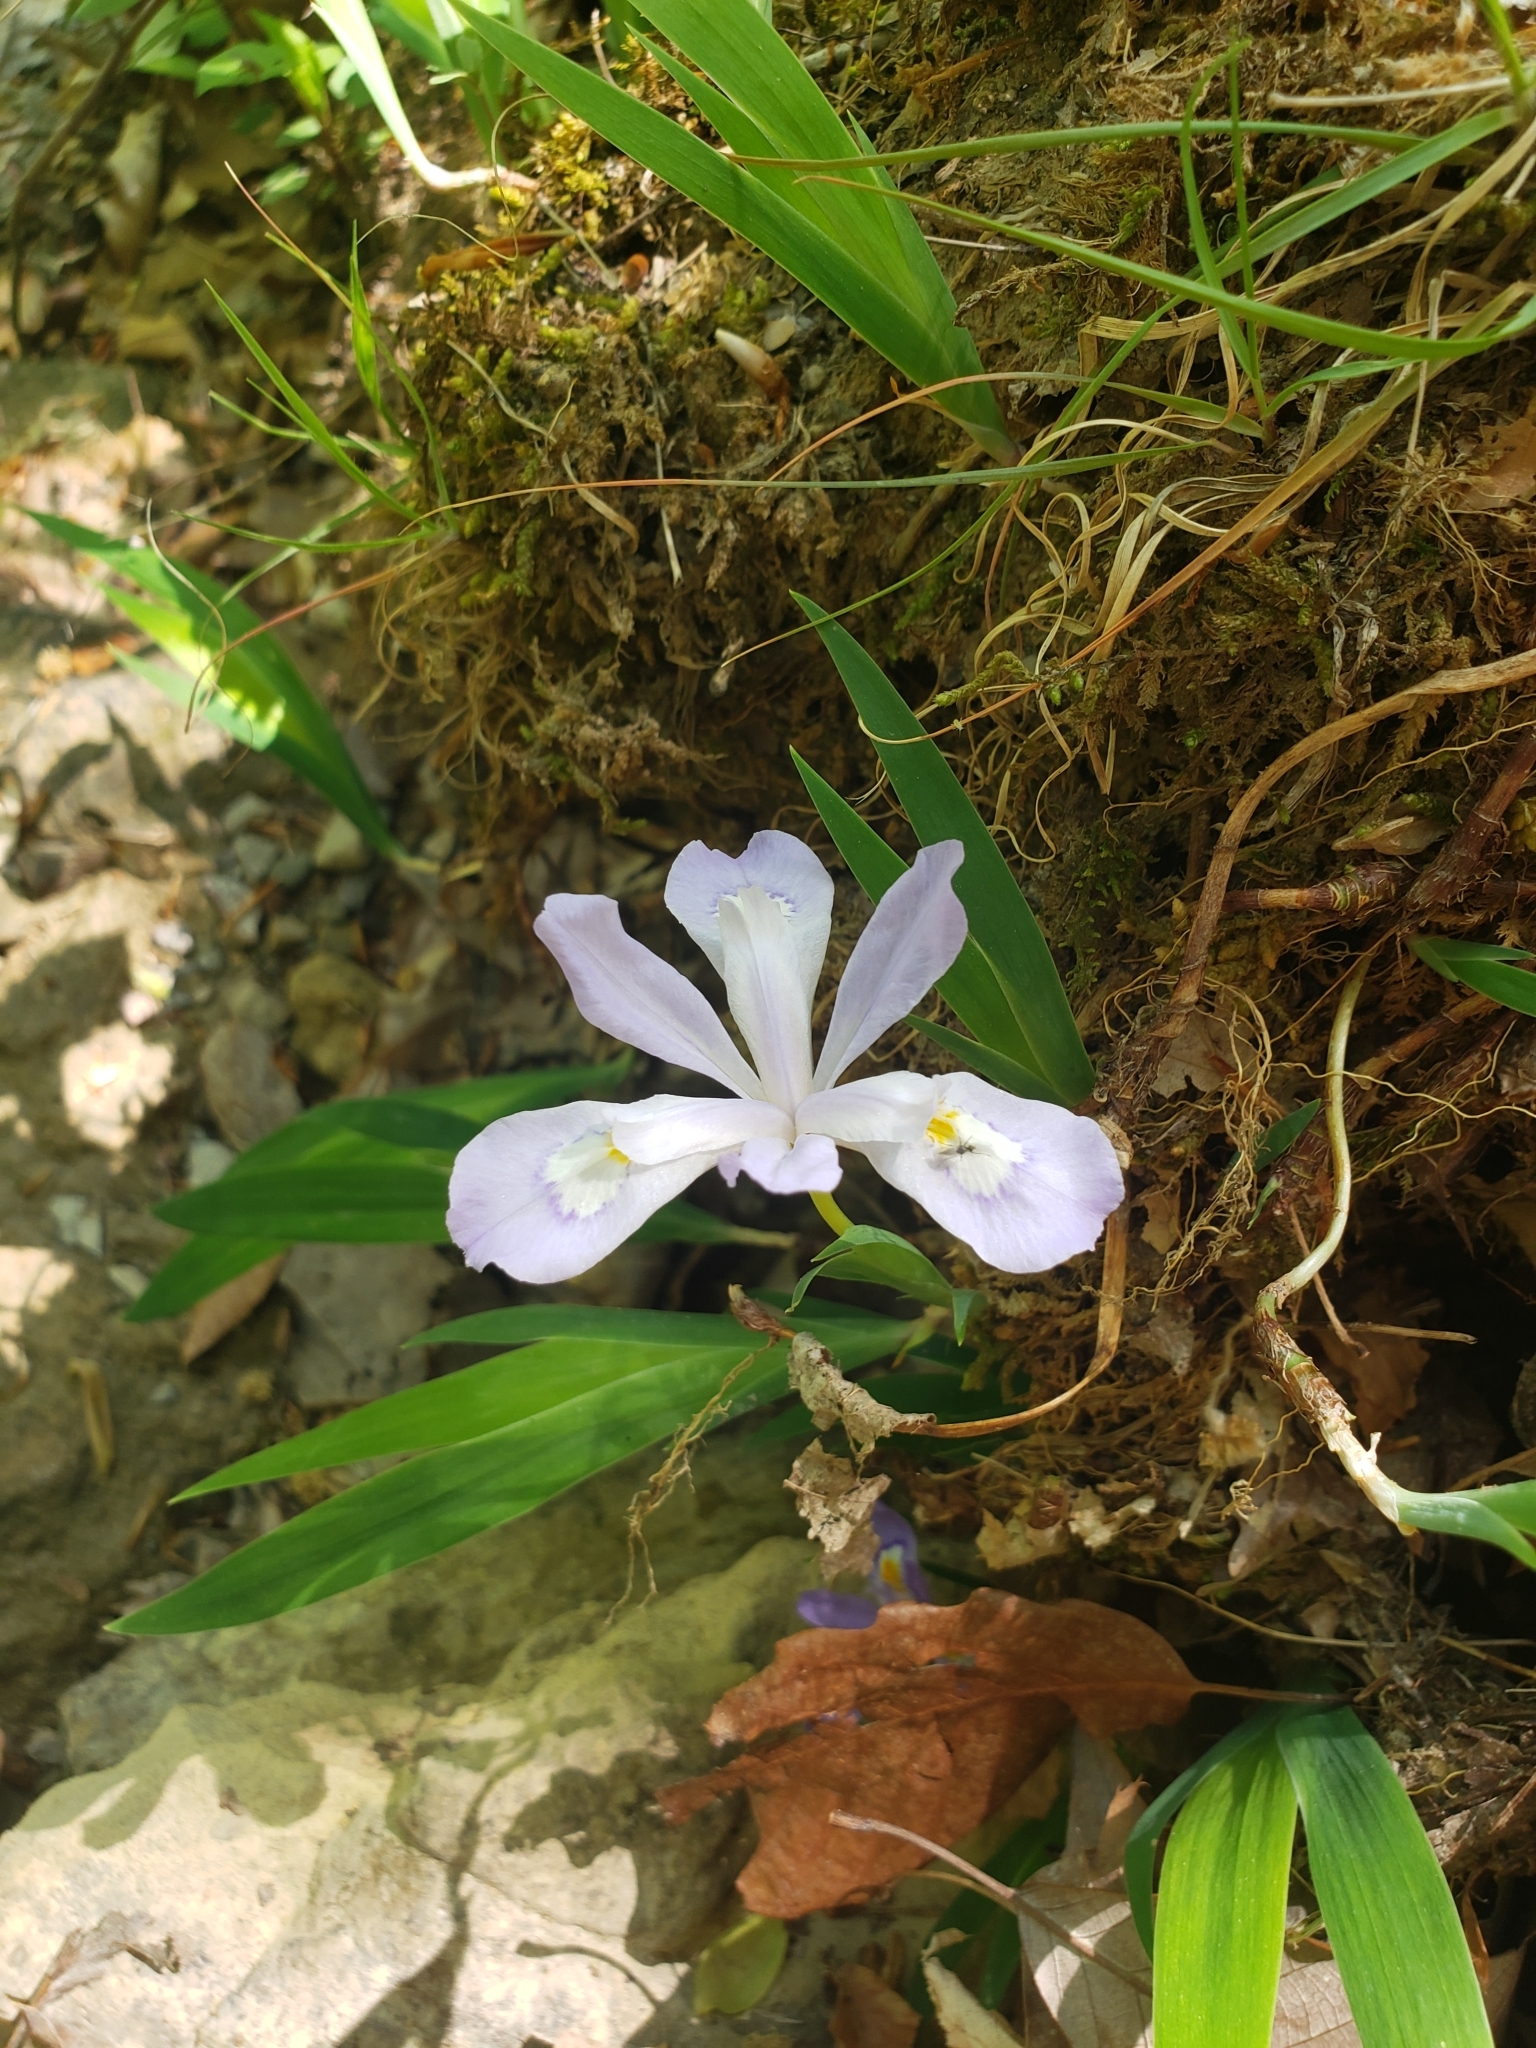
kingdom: Plantae
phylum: Tracheophyta
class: Liliopsida
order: Asparagales
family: Iridaceae
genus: Iris
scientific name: Iris cristata
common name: Crested iris
